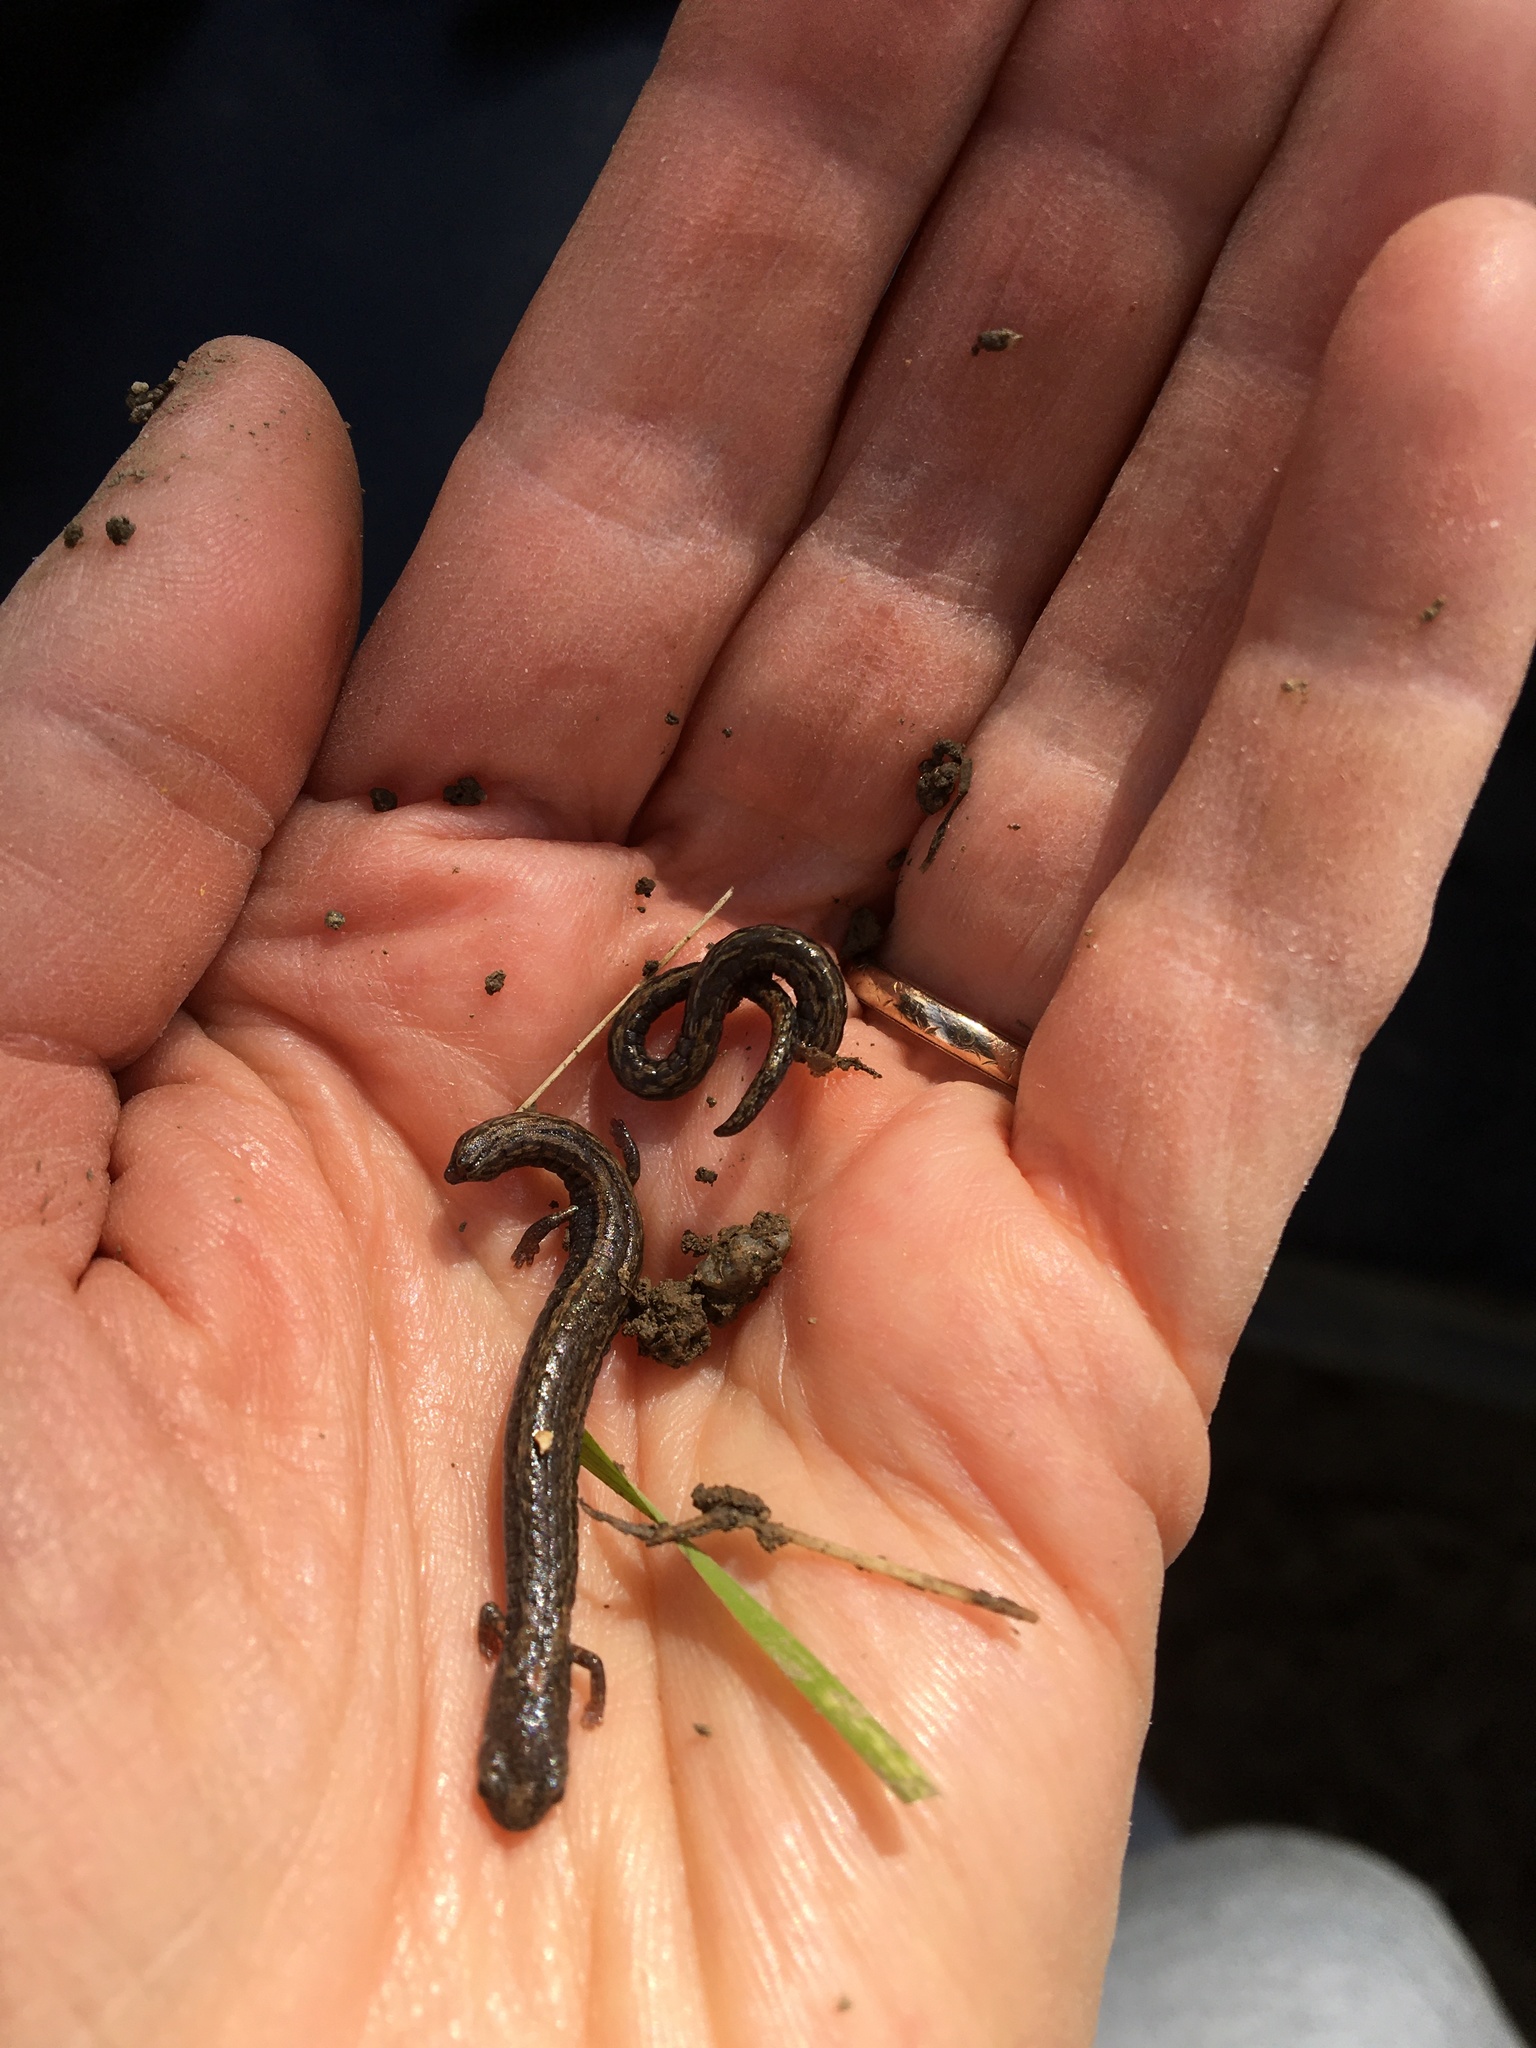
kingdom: Animalia
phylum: Chordata
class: Amphibia
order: Caudata
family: Plethodontidae
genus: Batrachoseps
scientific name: Batrachoseps nigriventris
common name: Black-bellied slender salamander
